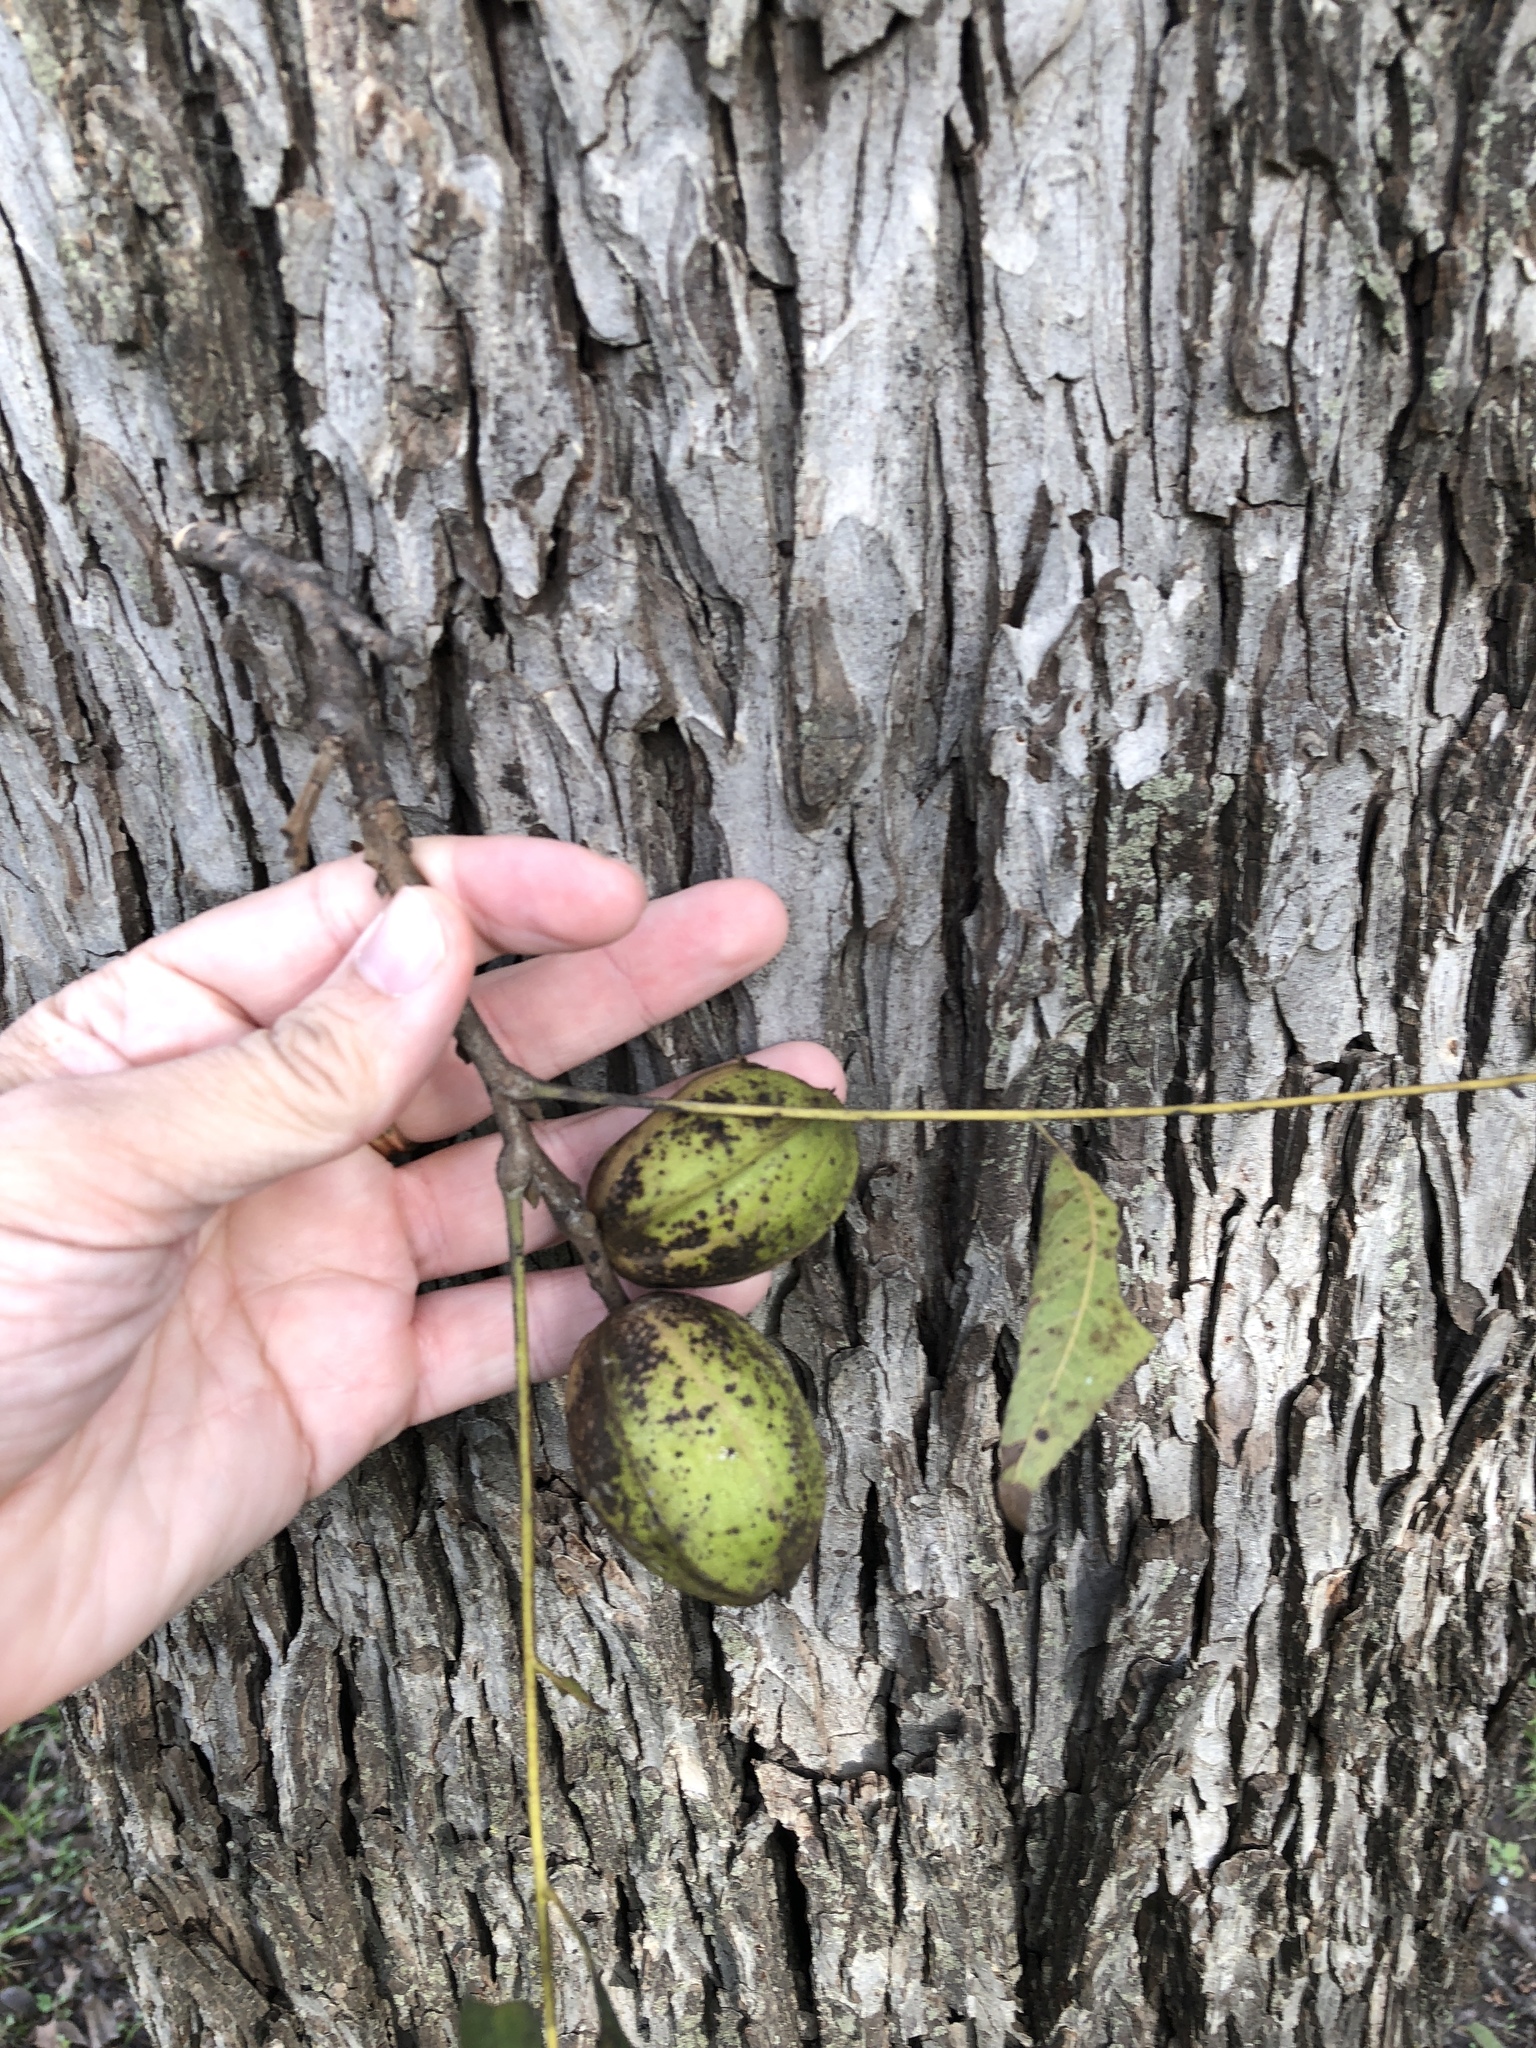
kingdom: Plantae
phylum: Tracheophyta
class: Magnoliopsida
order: Fagales
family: Juglandaceae
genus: Carya
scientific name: Carya illinoinensis
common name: Pecan
